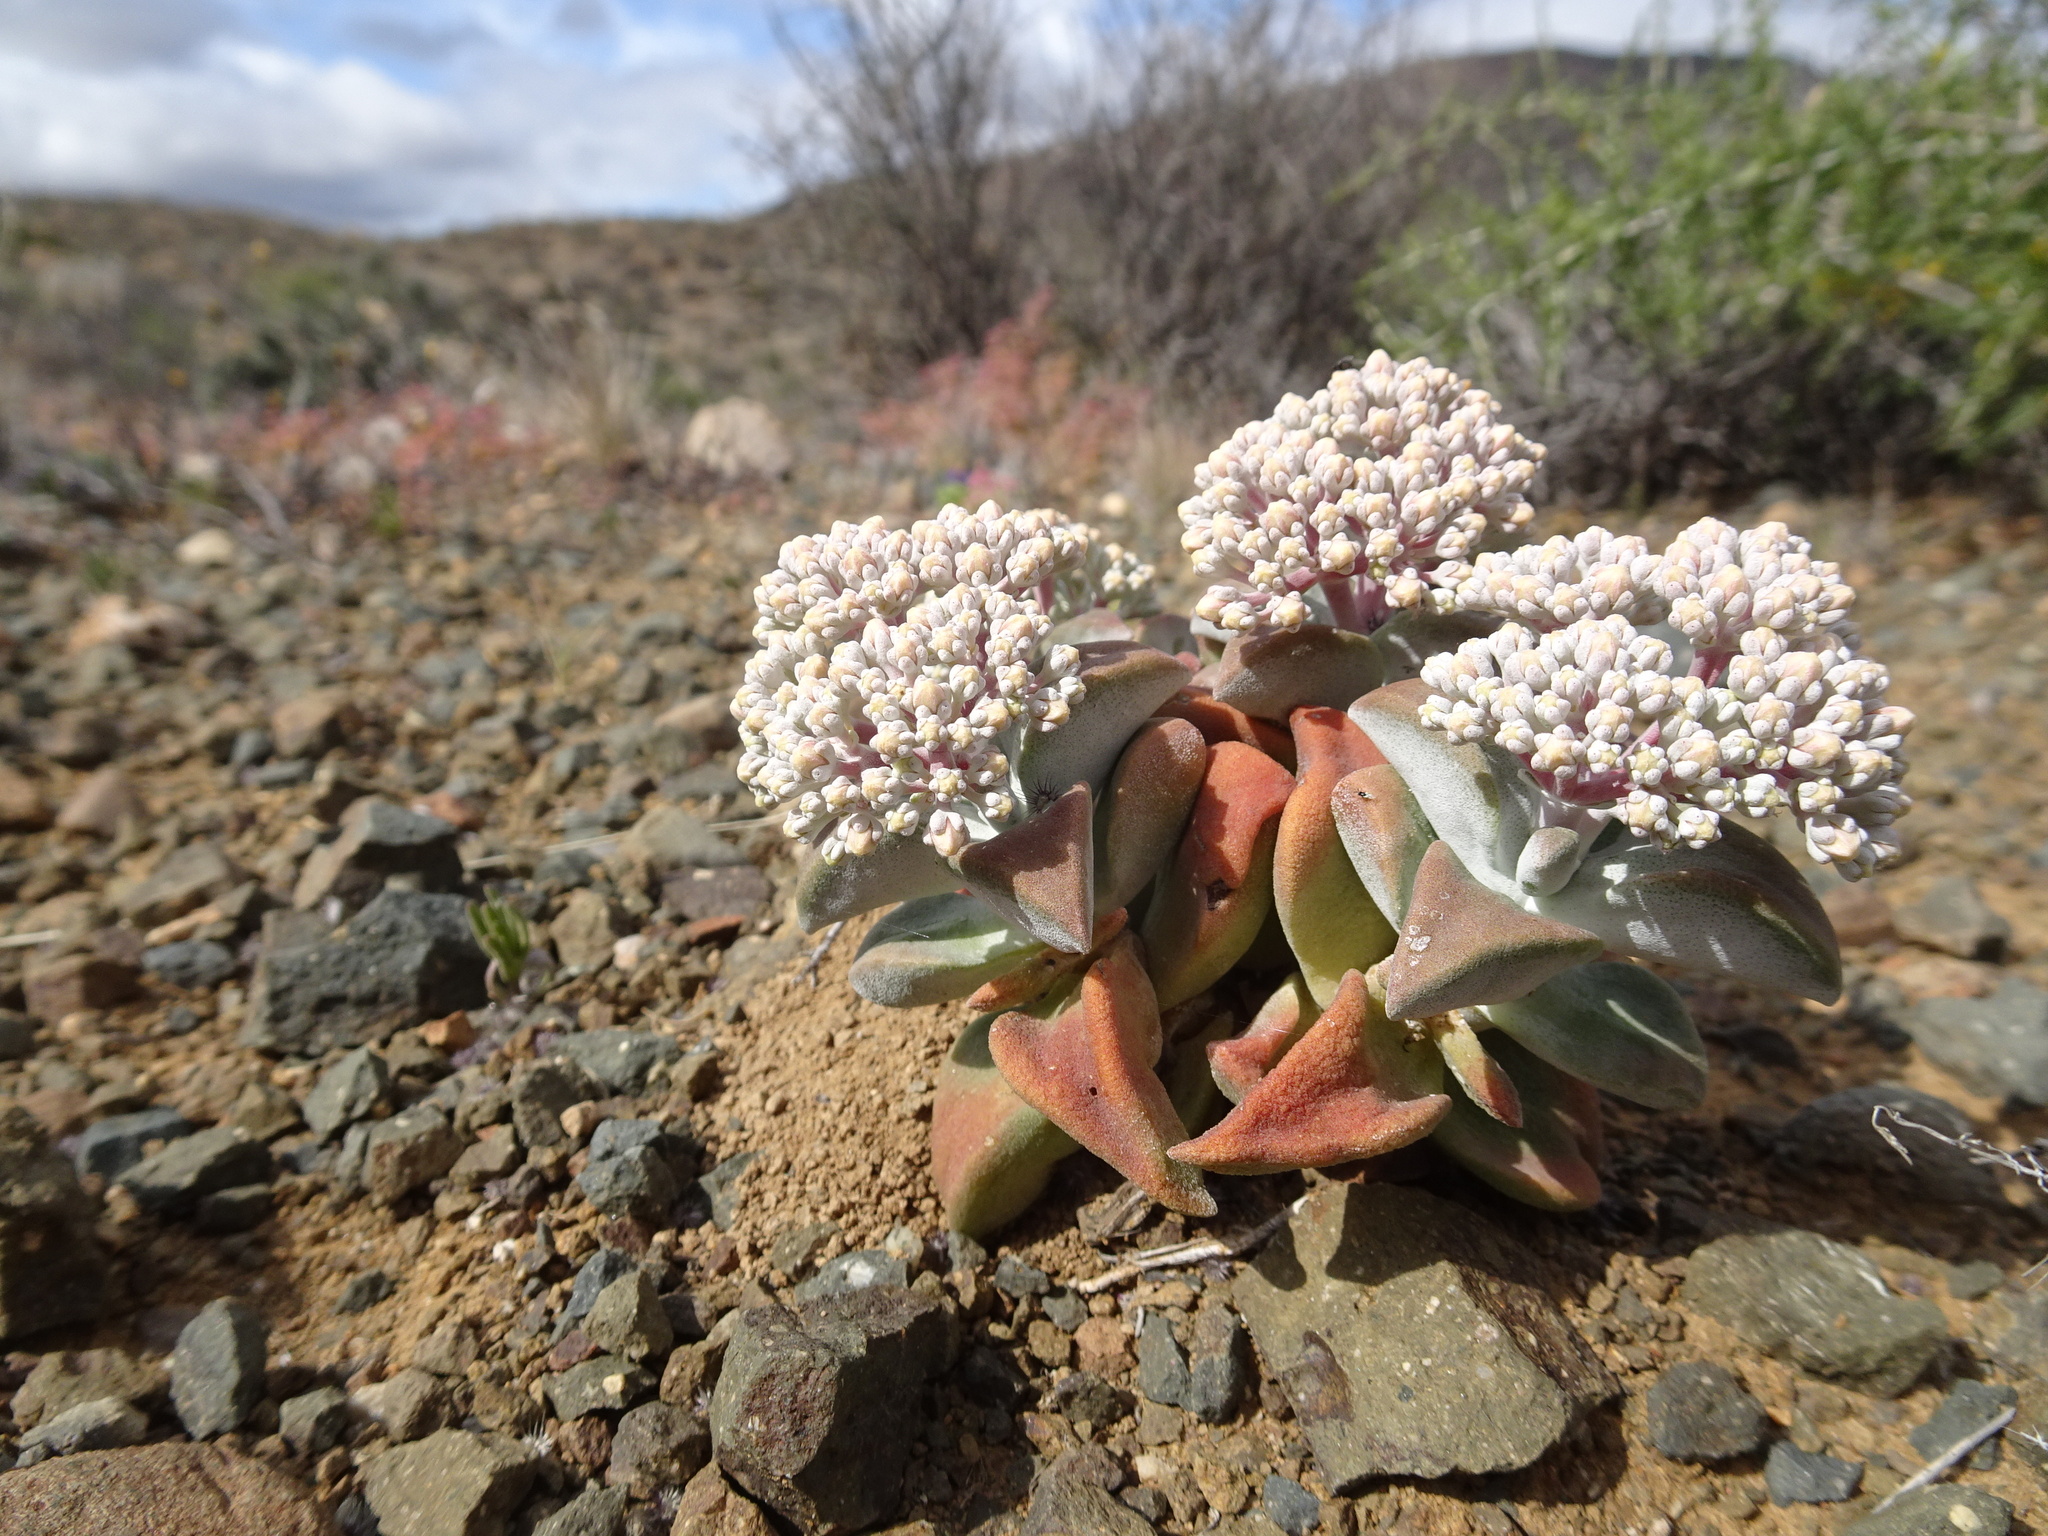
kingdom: Plantae
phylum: Tracheophyta
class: Magnoliopsida
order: Saxifragales
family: Crassulaceae
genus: Crassula
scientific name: Crassula deltoidea
